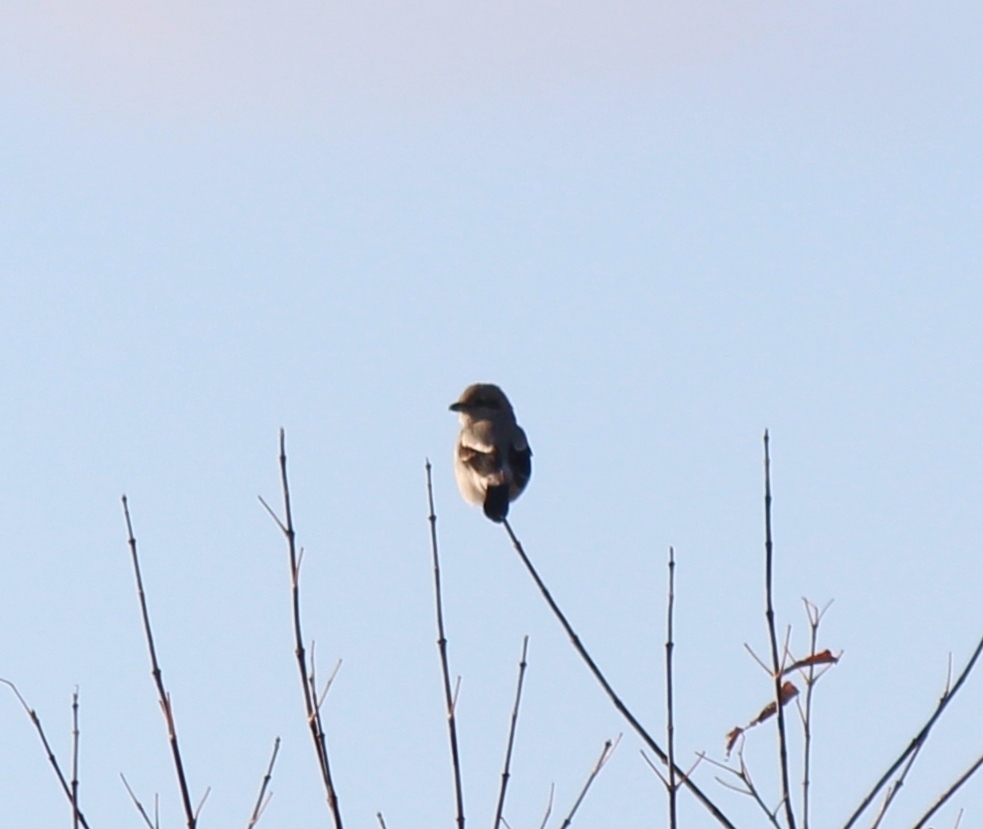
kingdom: Animalia
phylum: Chordata
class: Aves
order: Passeriformes
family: Laniidae
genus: Lanius
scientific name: Lanius borealis
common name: Northern shrike
